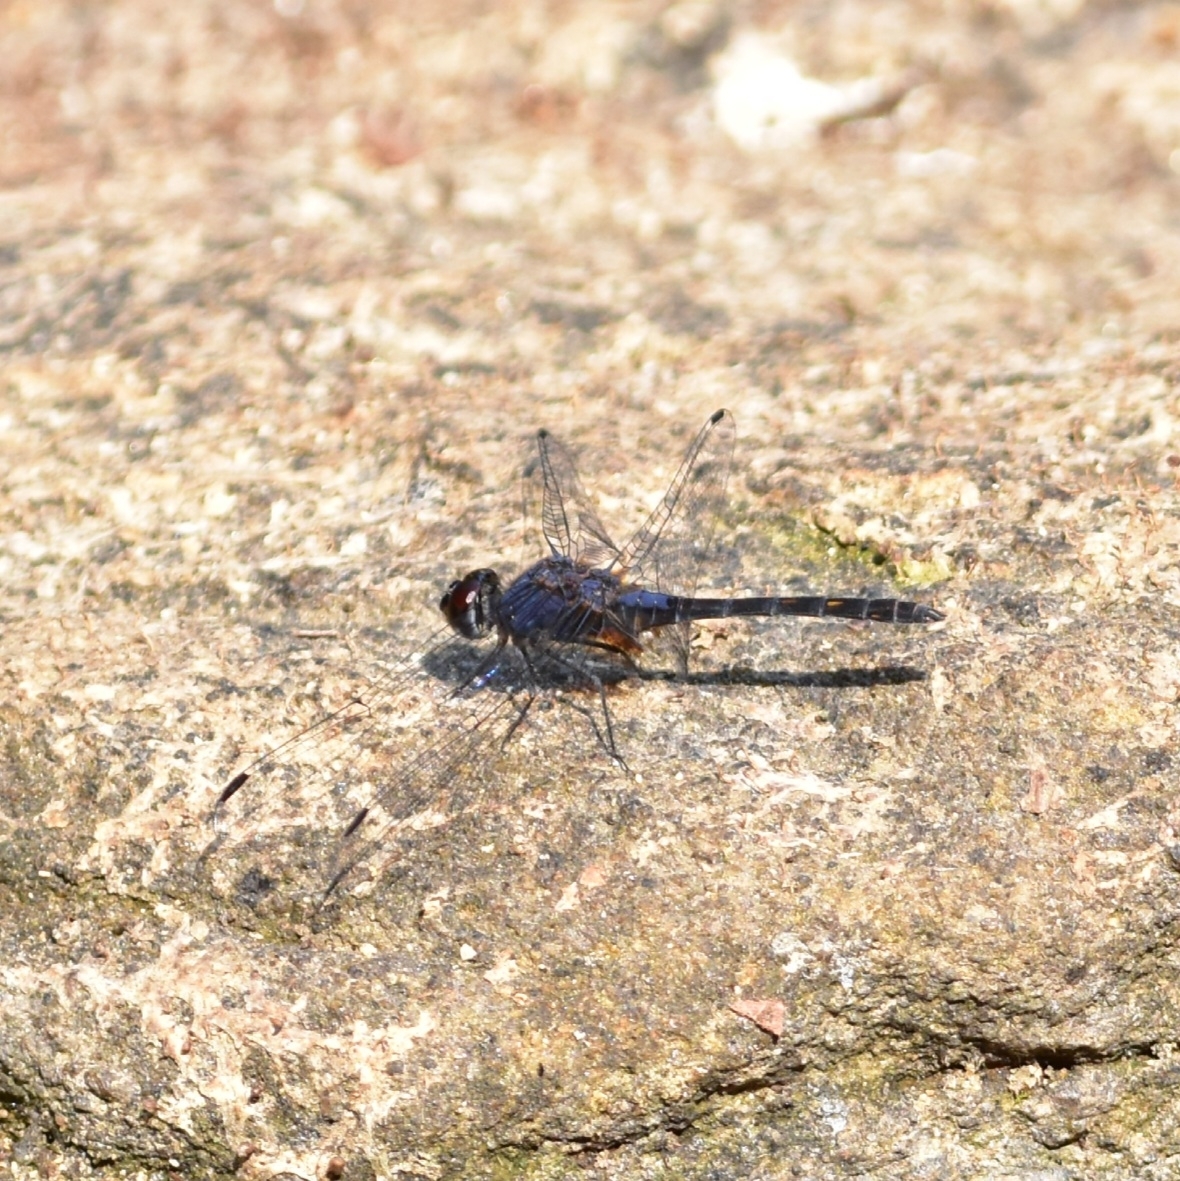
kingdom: Animalia
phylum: Arthropoda
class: Insecta
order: Odonata
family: Libellulidae
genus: Trithemis
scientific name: Trithemis festiva
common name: Indigo dropwing
